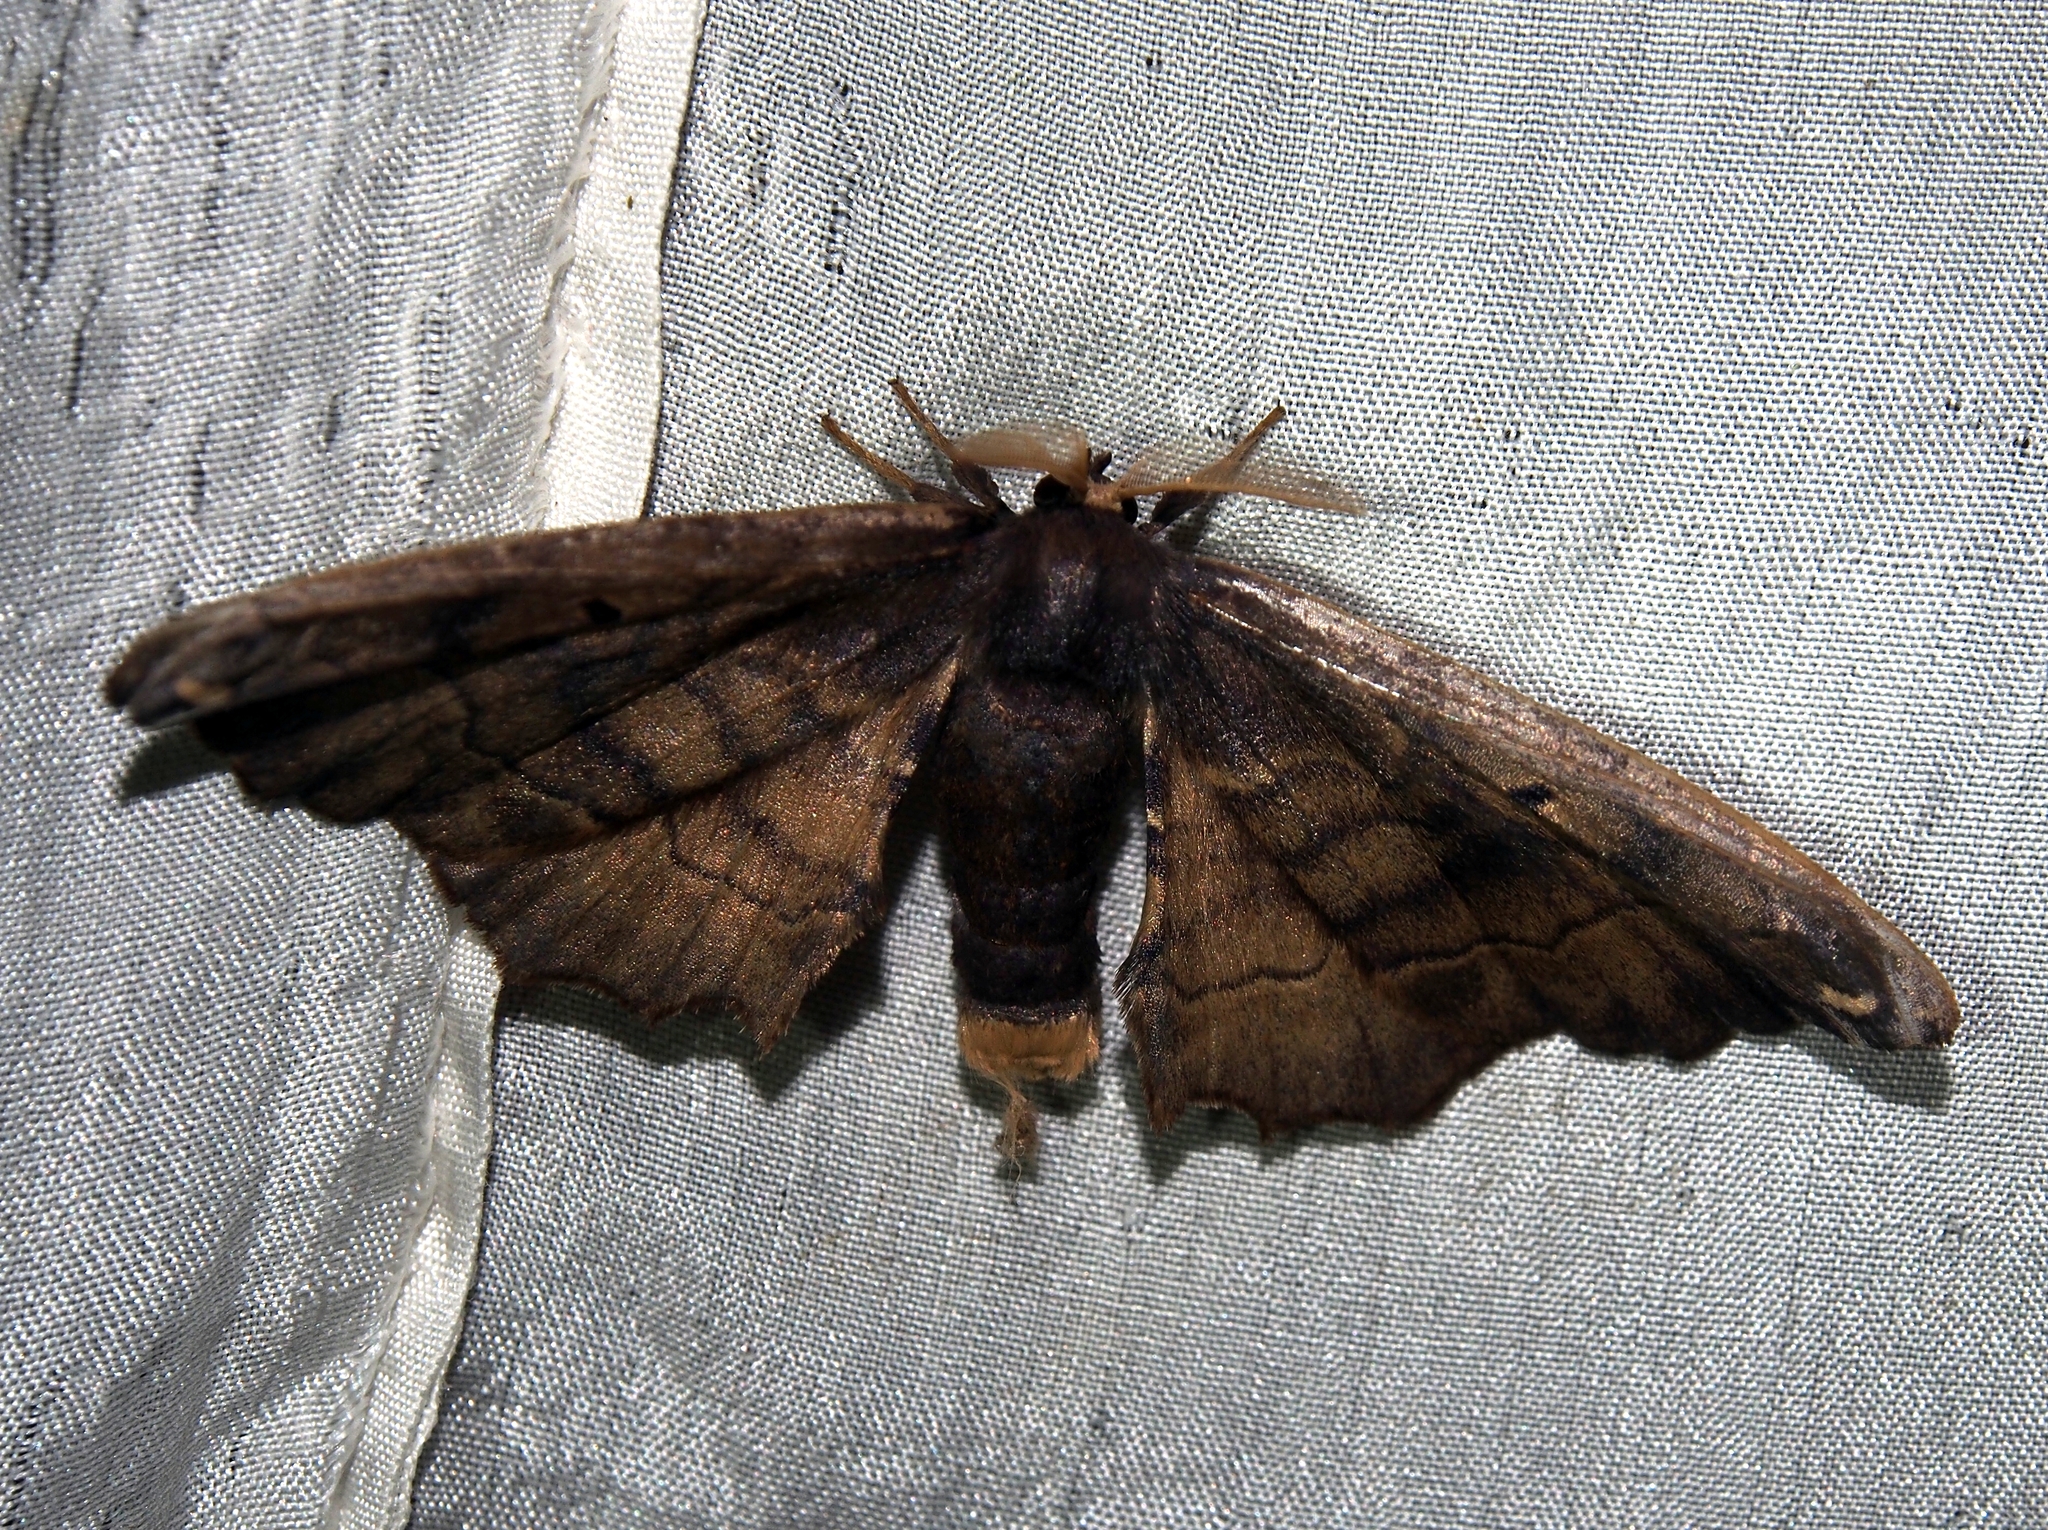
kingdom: Animalia
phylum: Arthropoda
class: Insecta
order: Lepidoptera
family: Phiditiidae
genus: Phiditia
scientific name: Phiditia cuprea
